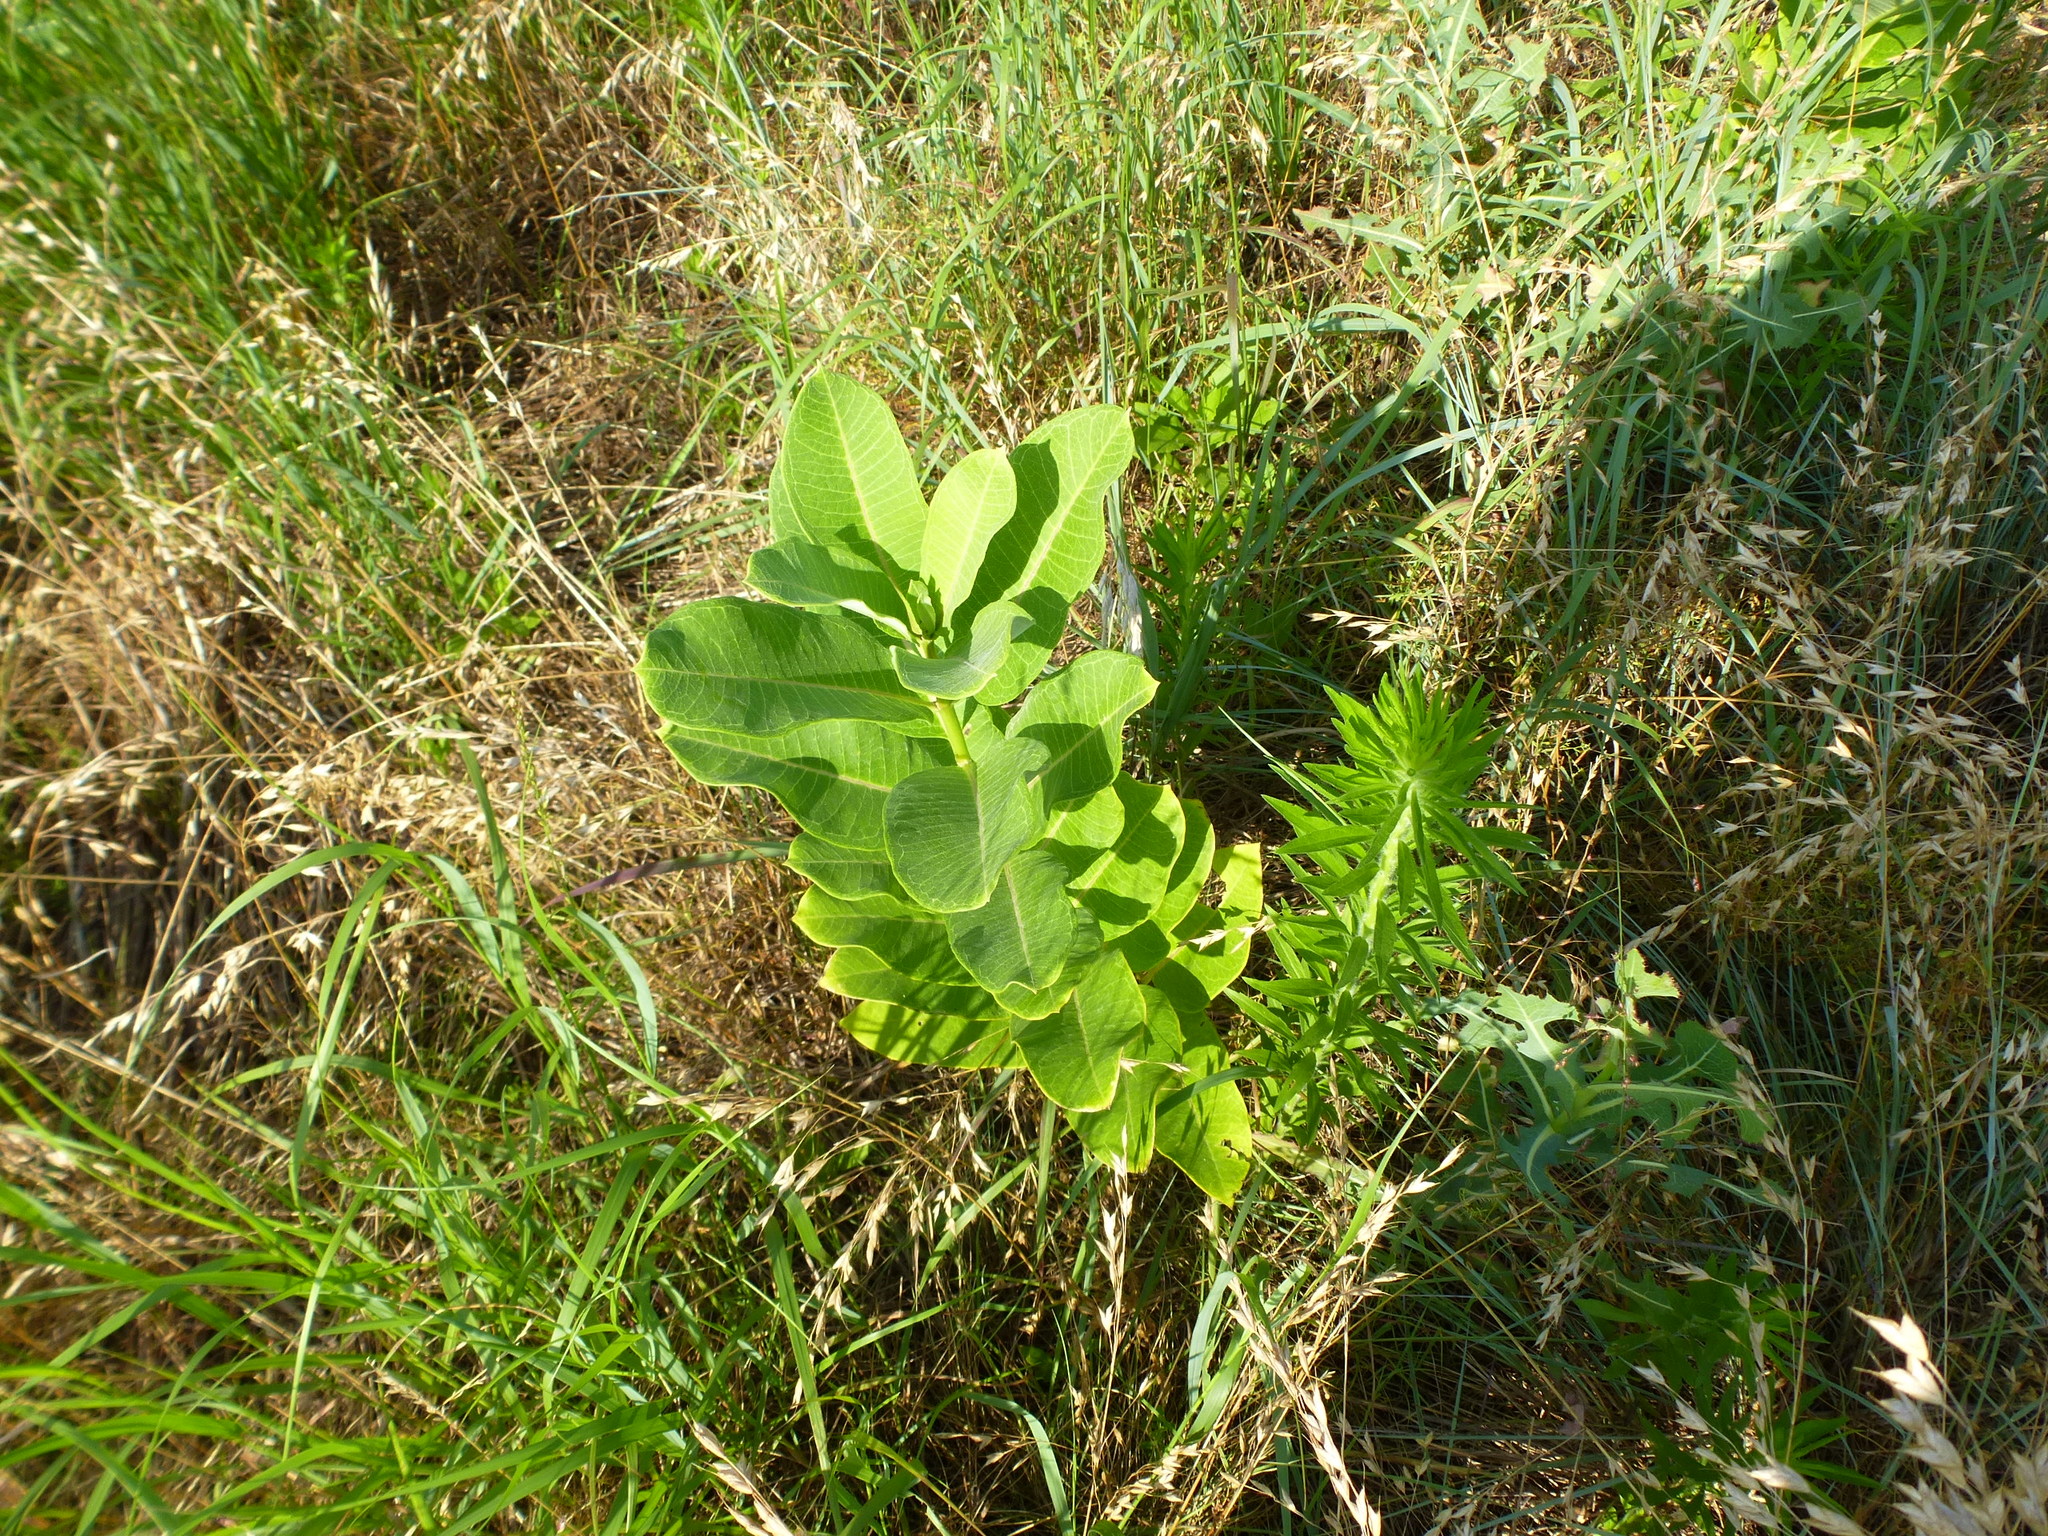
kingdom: Plantae
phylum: Tracheophyta
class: Magnoliopsida
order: Gentianales
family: Apocynaceae
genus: Asclepias
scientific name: Asclepias syriaca
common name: Common milkweed
